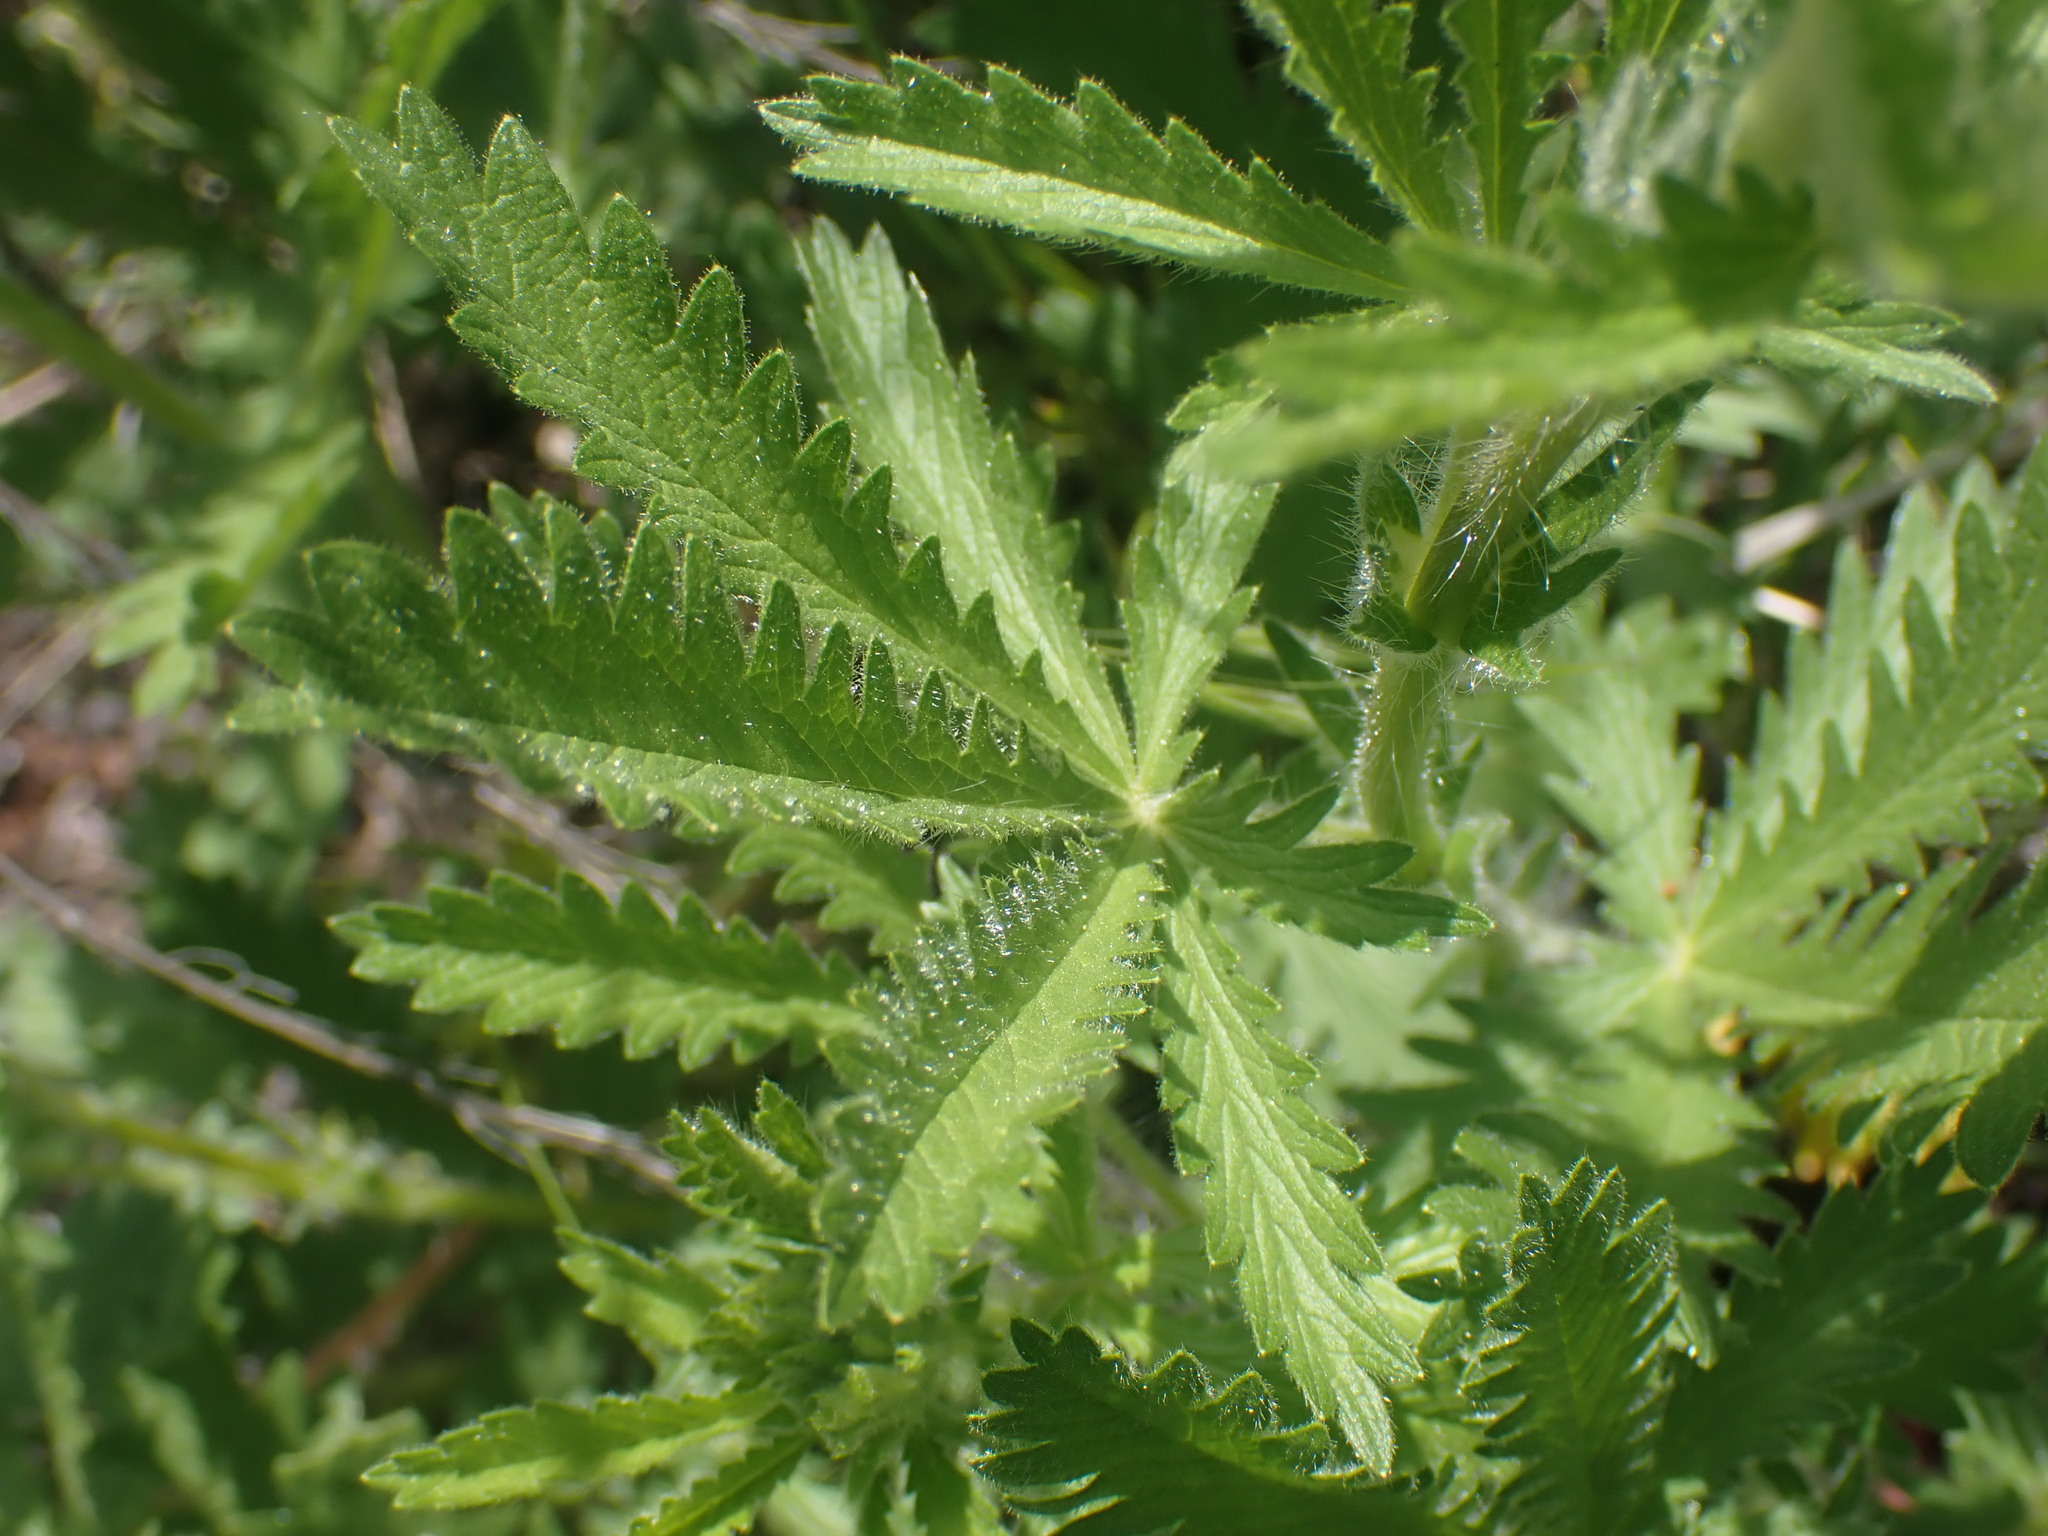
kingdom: Plantae
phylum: Tracheophyta
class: Magnoliopsida
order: Rosales
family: Rosaceae
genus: Potentilla
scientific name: Potentilla recta
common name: Sulphur cinquefoil
